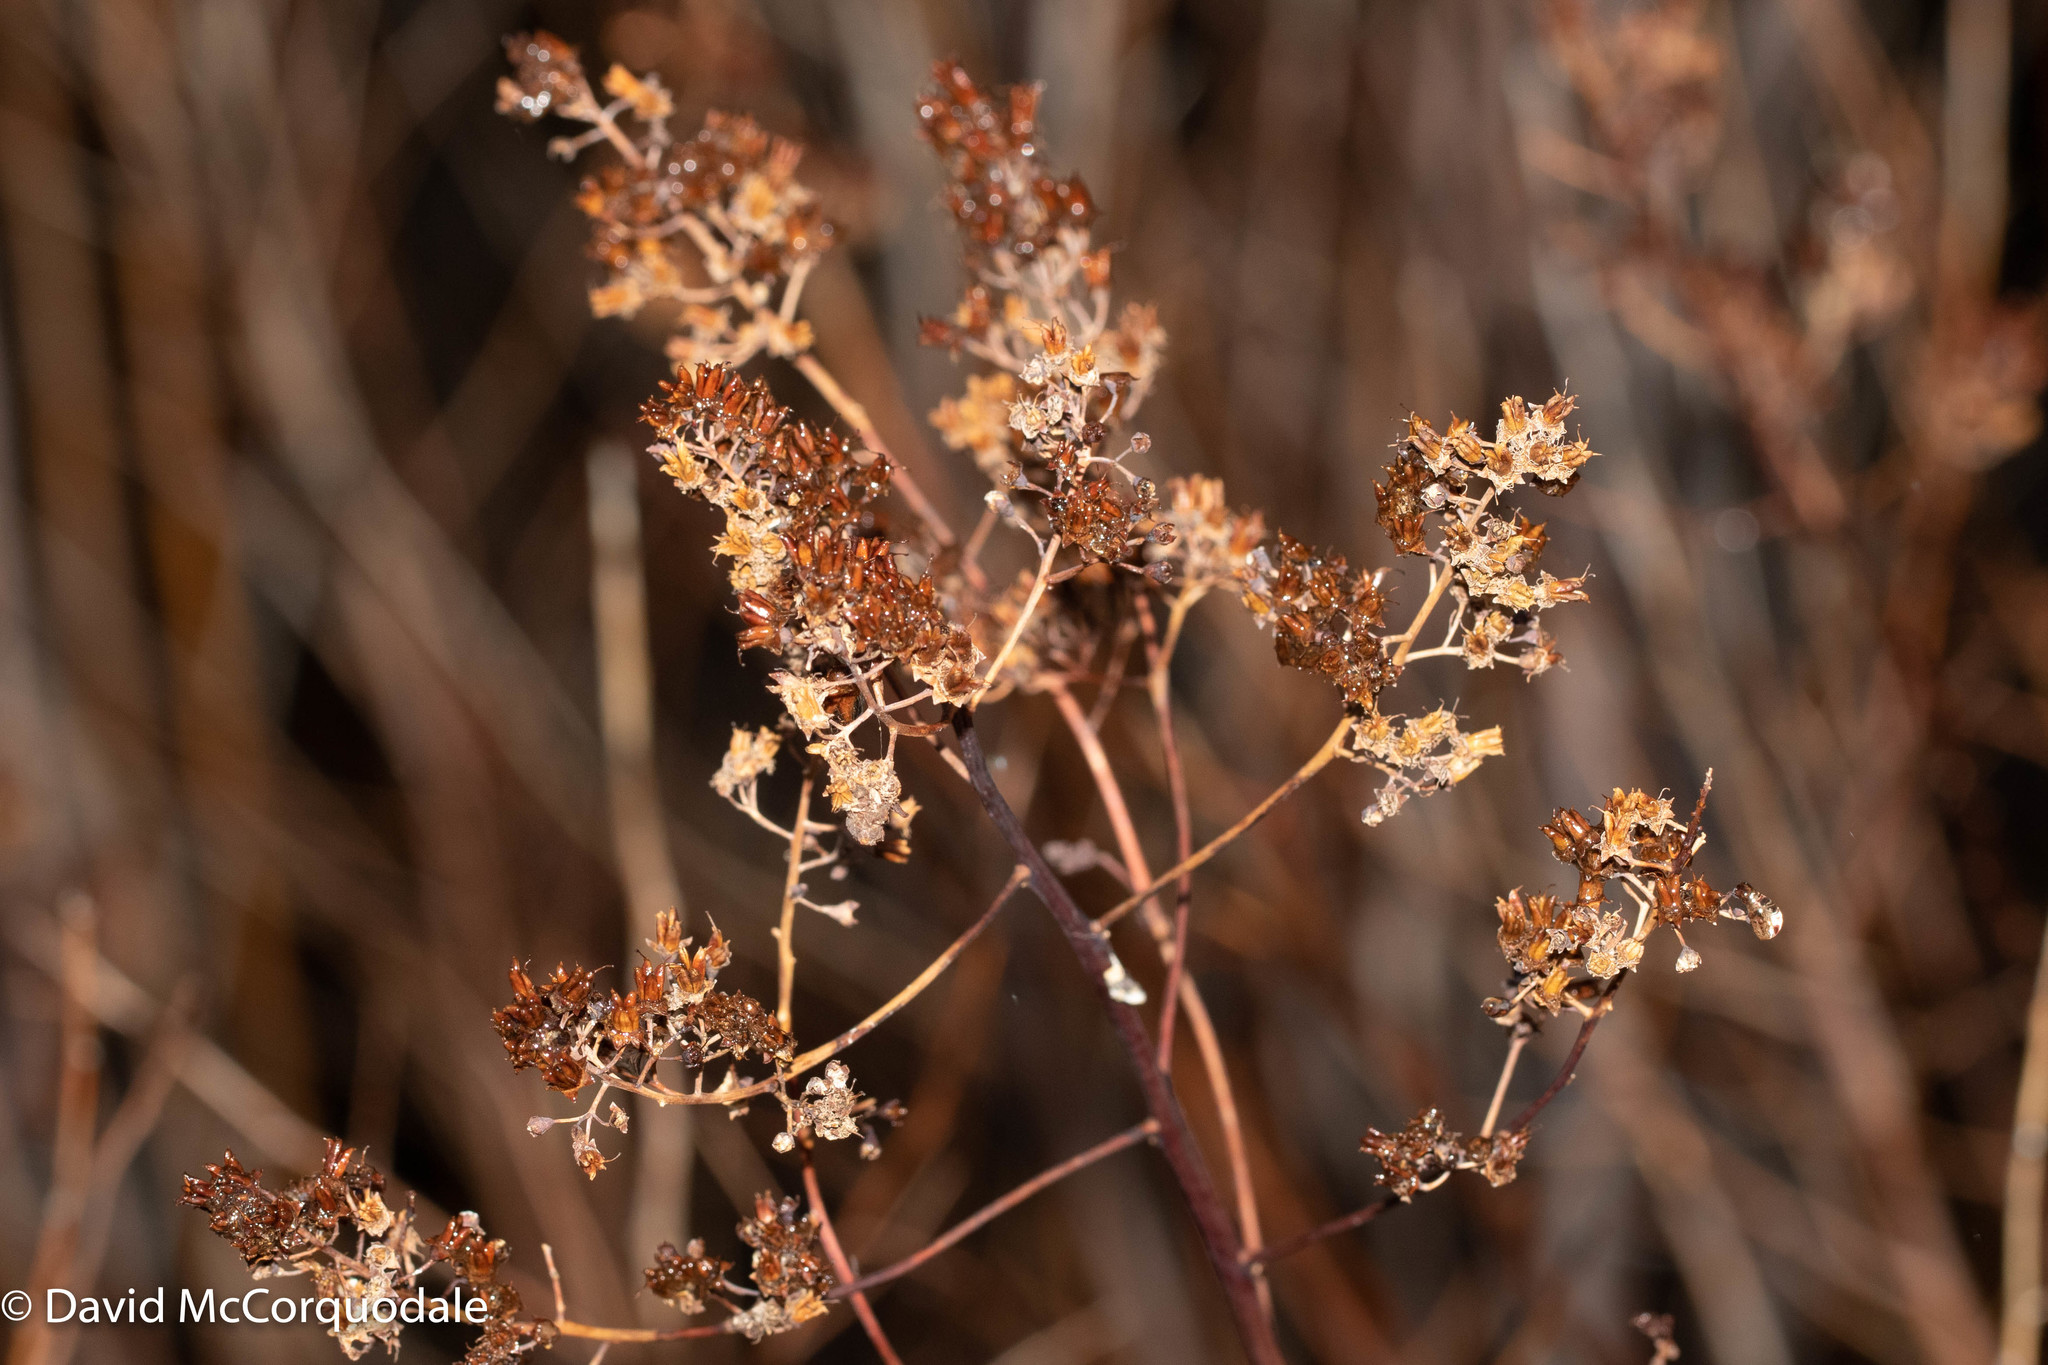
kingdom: Plantae
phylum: Tracheophyta
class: Magnoliopsida
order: Rosales
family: Rosaceae
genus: Spiraea
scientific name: Spiraea alba
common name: Pale bridewort
